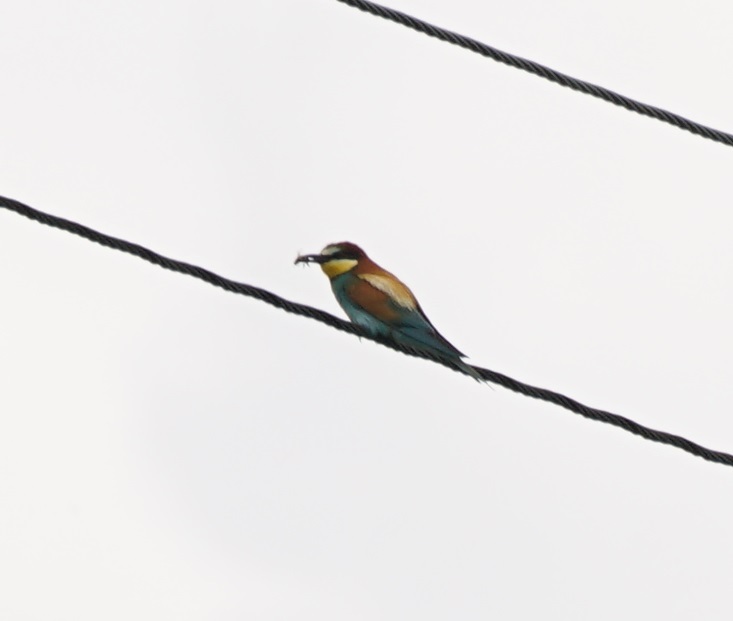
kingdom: Animalia
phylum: Chordata
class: Aves
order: Coraciiformes
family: Meropidae
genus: Merops
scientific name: Merops apiaster
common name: European bee-eater
